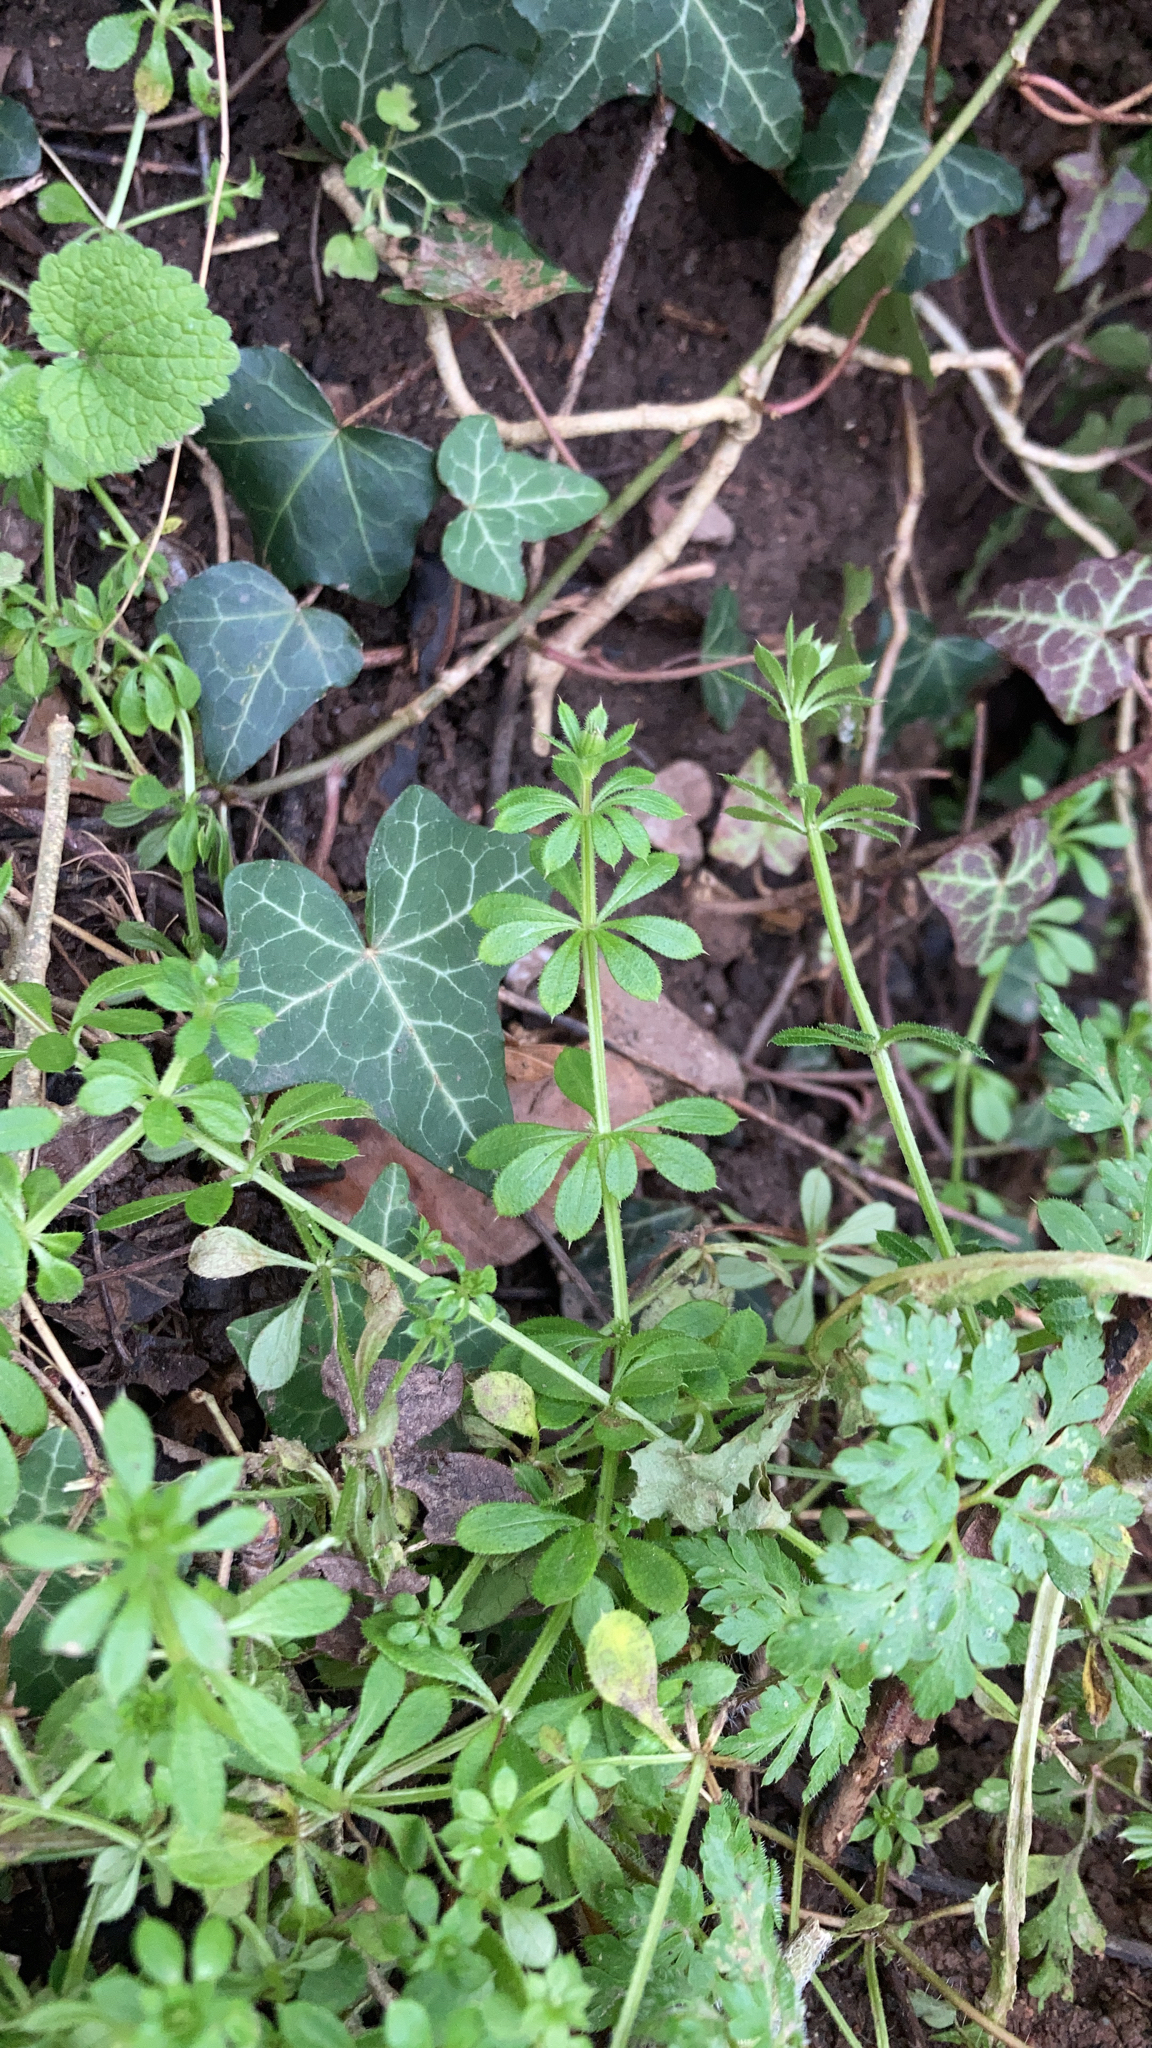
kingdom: Plantae
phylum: Tracheophyta
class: Magnoliopsida
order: Gentianales
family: Rubiaceae
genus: Galium
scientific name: Galium aparine
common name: Cleavers
